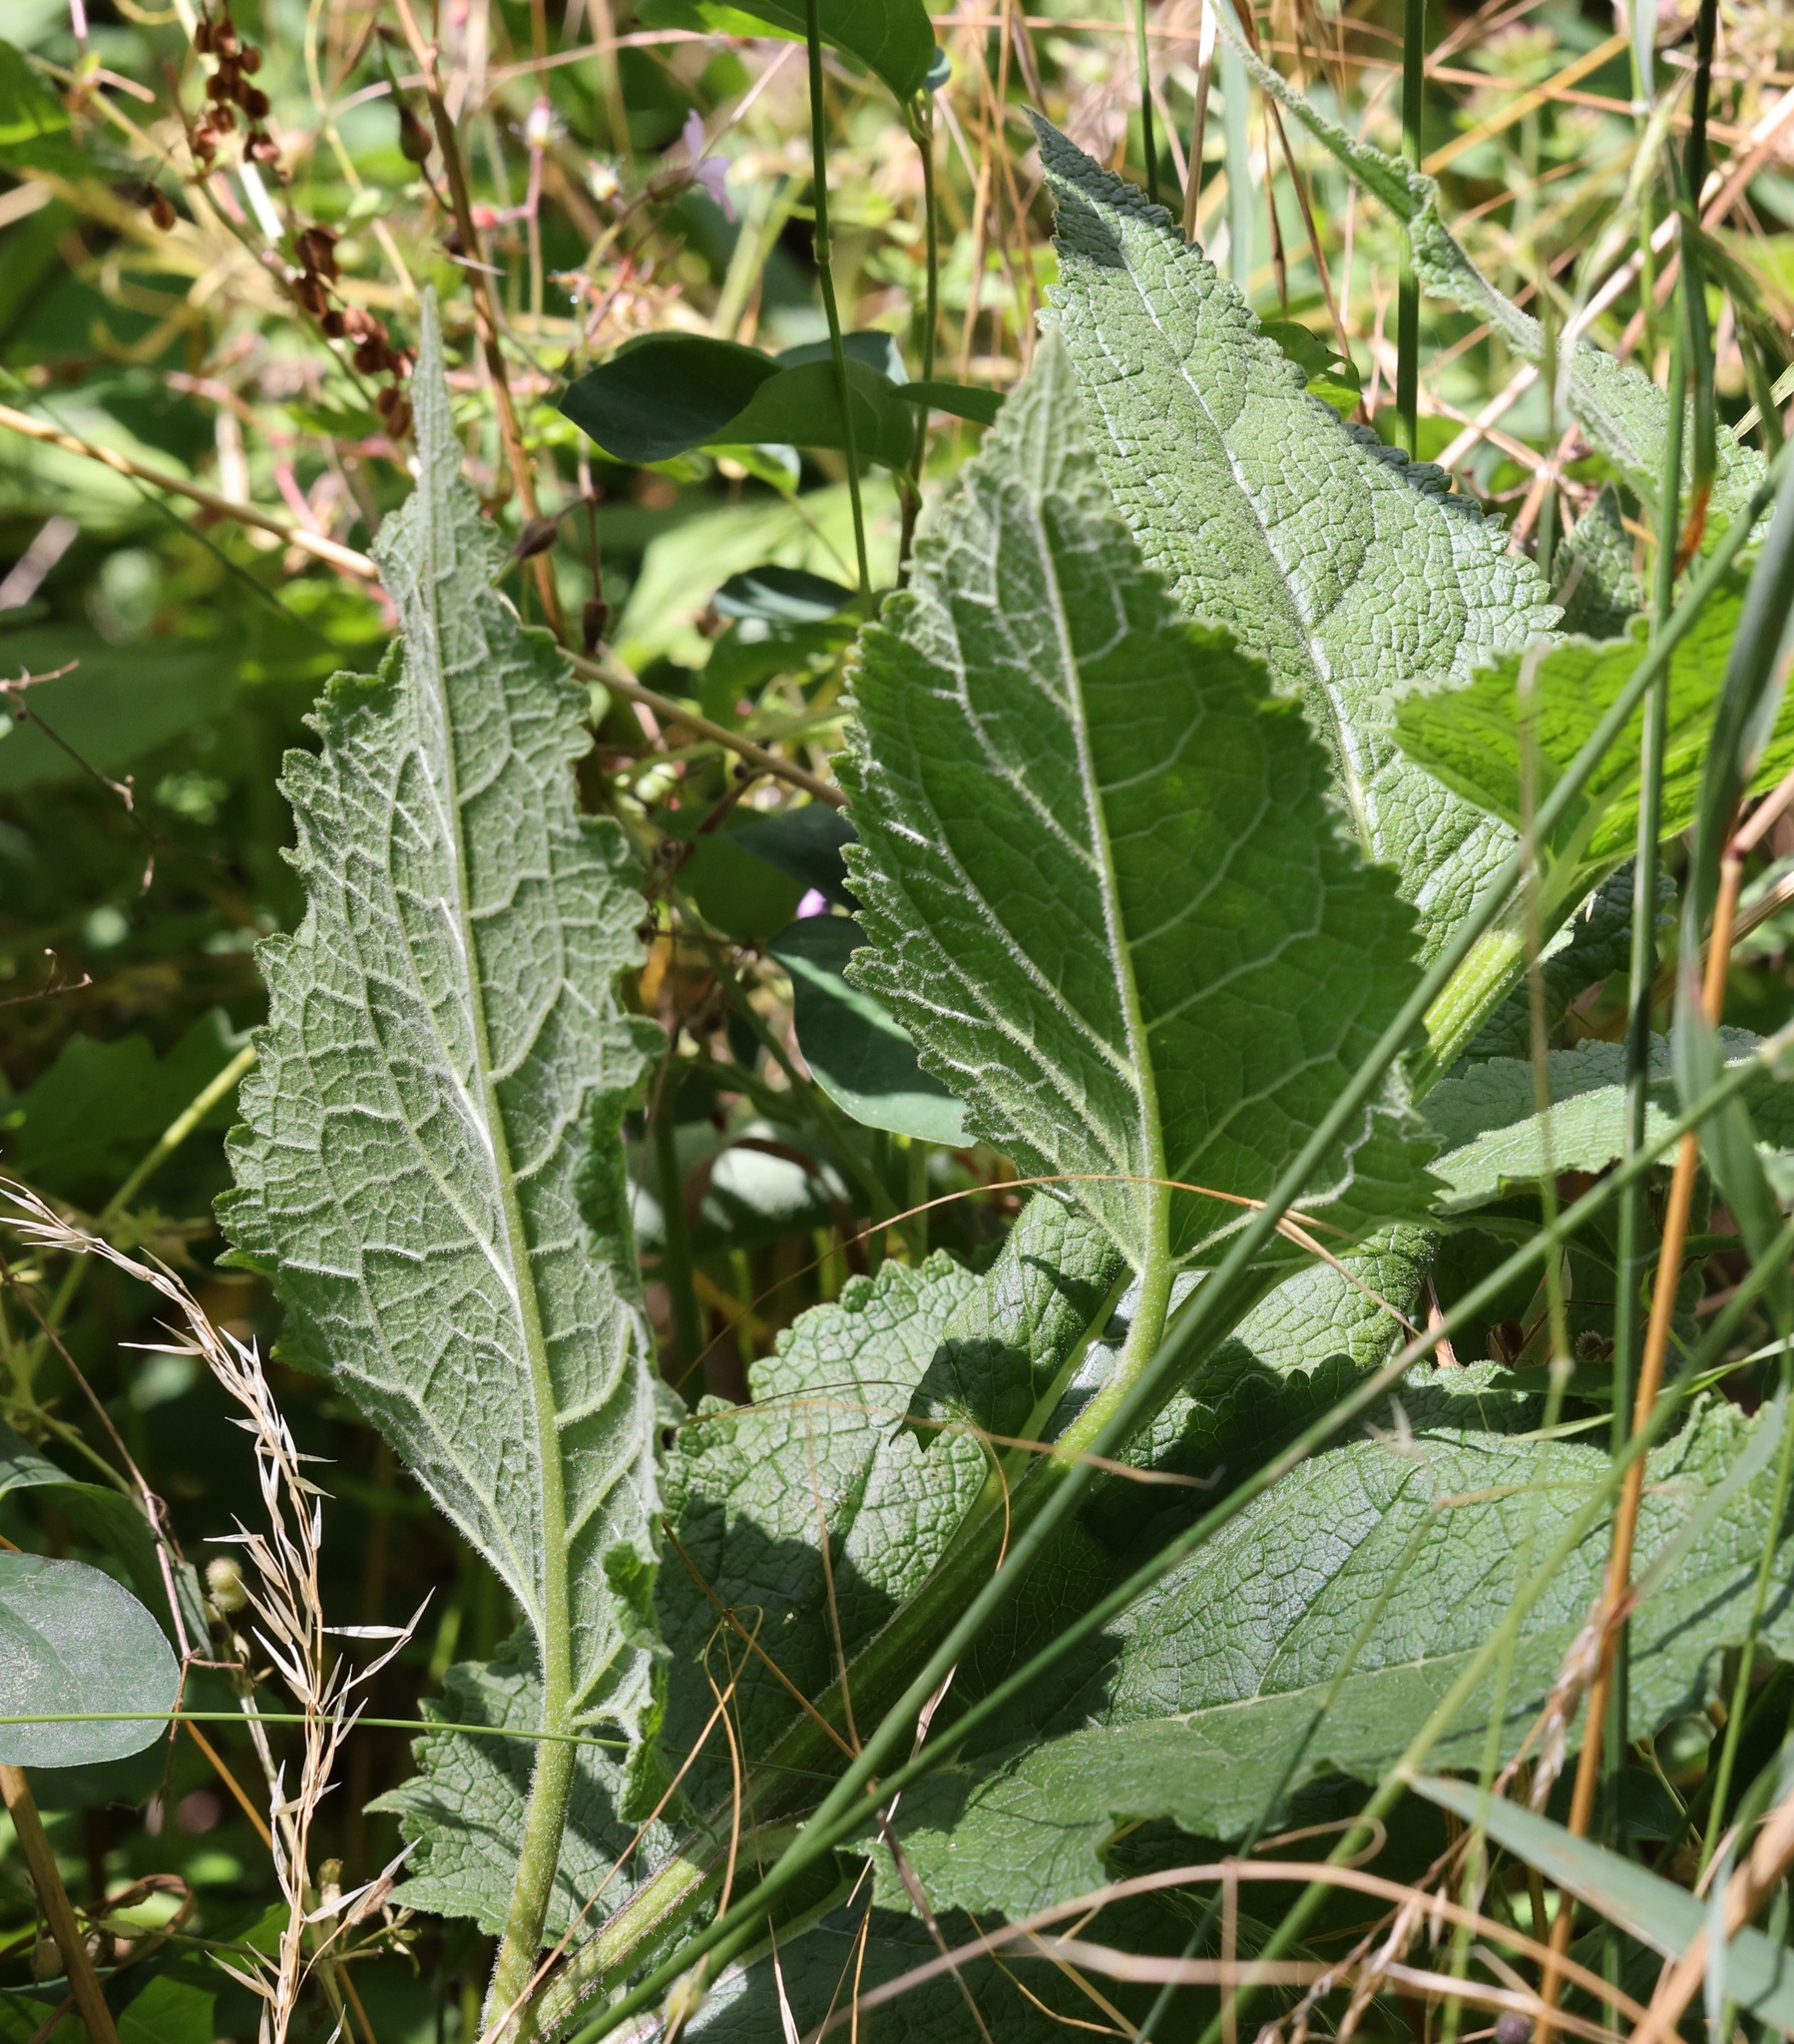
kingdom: Plantae
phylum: Tracheophyta
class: Magnoliopsida
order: Lamiales
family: Scrophulariaceae
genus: Verbascum
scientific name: Verbascum nigrum
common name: Dark mullein
